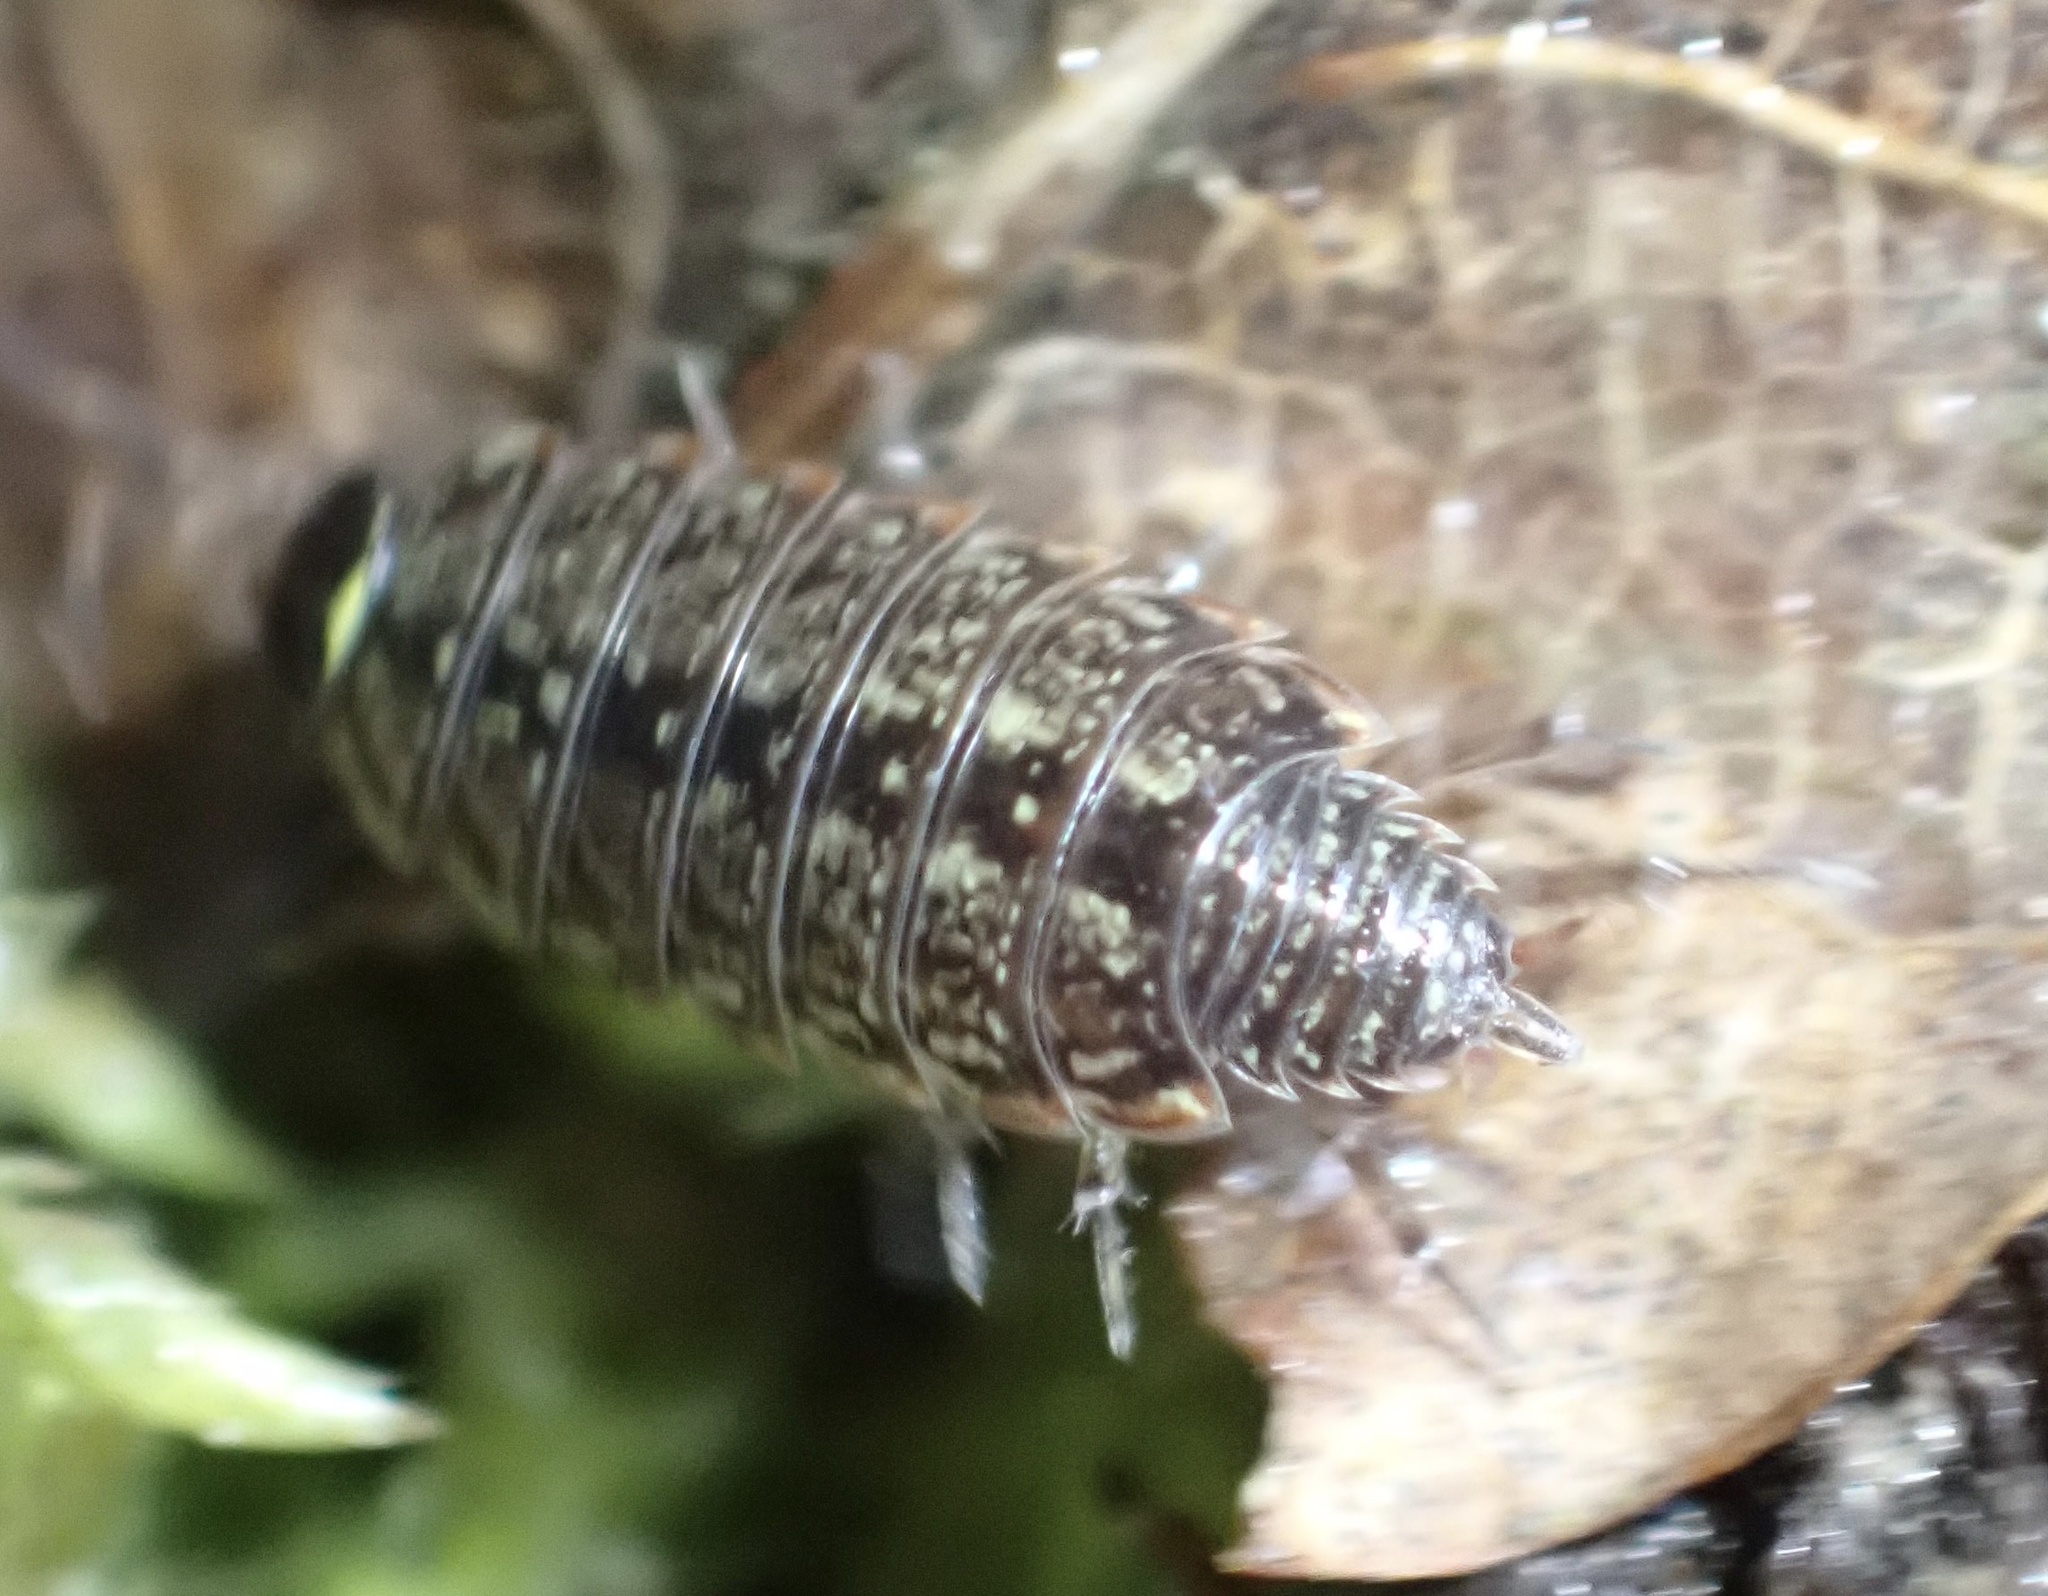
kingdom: Animalia
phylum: Arthropoda
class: Malacostraca
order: Isopoda
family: Philosciidae
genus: Philoscia
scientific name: Philoscia muscorum
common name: Common striped woodlouse
